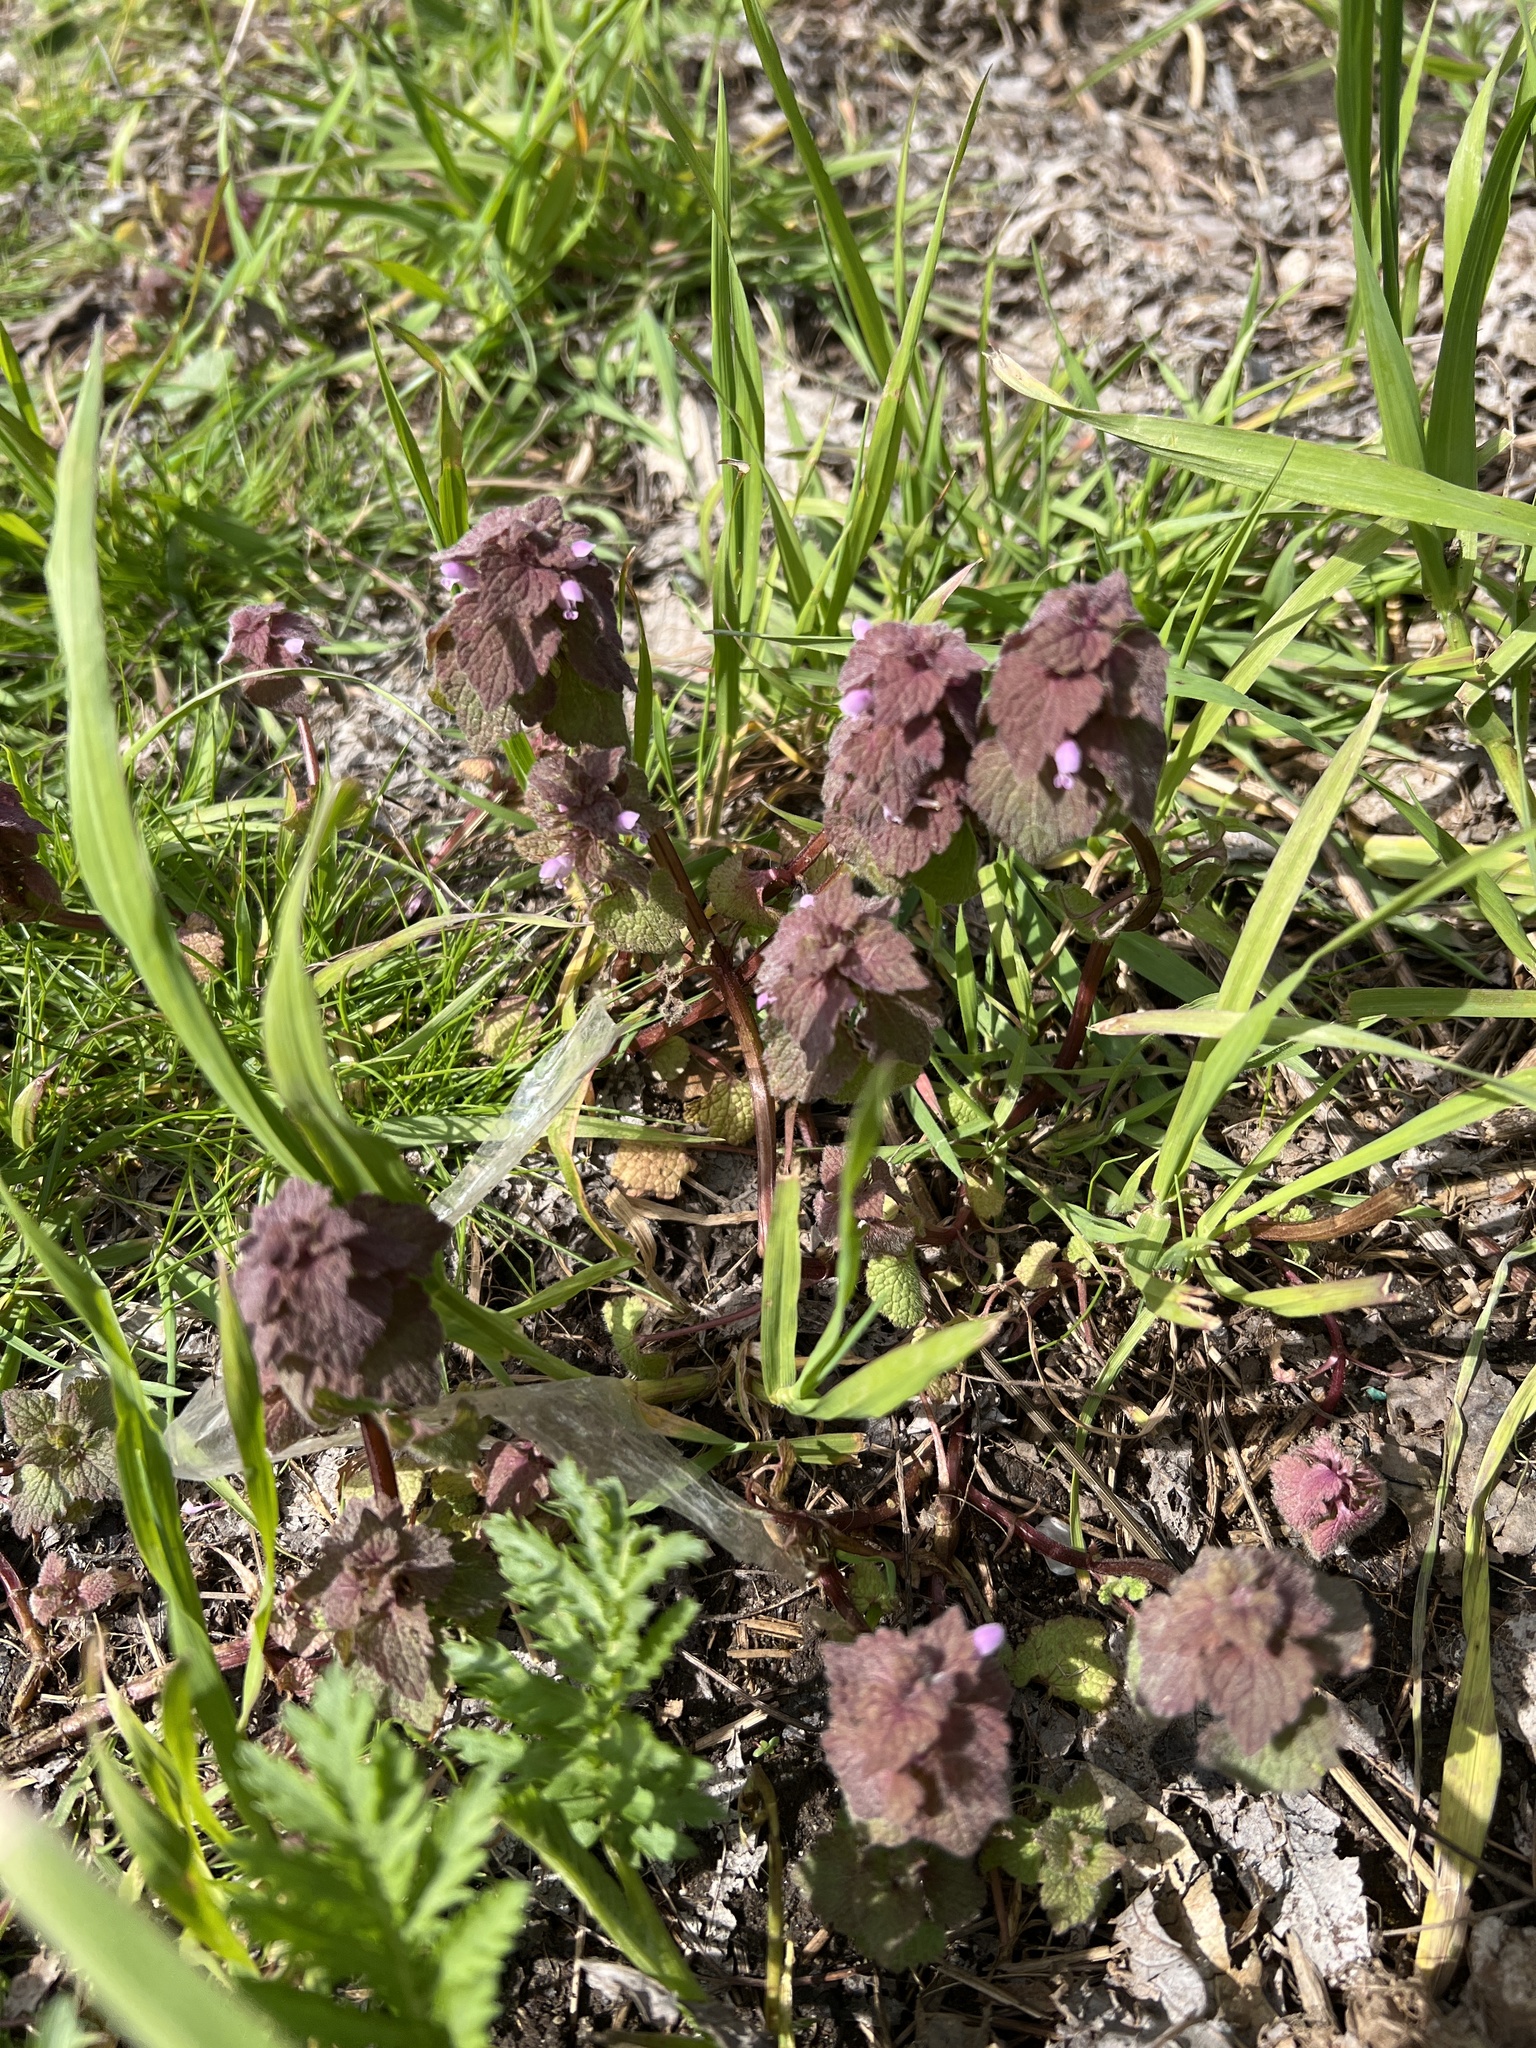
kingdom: Plantae
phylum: Tracheophyta
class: Magnoliopsida
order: Lamiales
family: Lamiaceae
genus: Lamium
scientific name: Lamium purpureum
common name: Red dead-nettle
